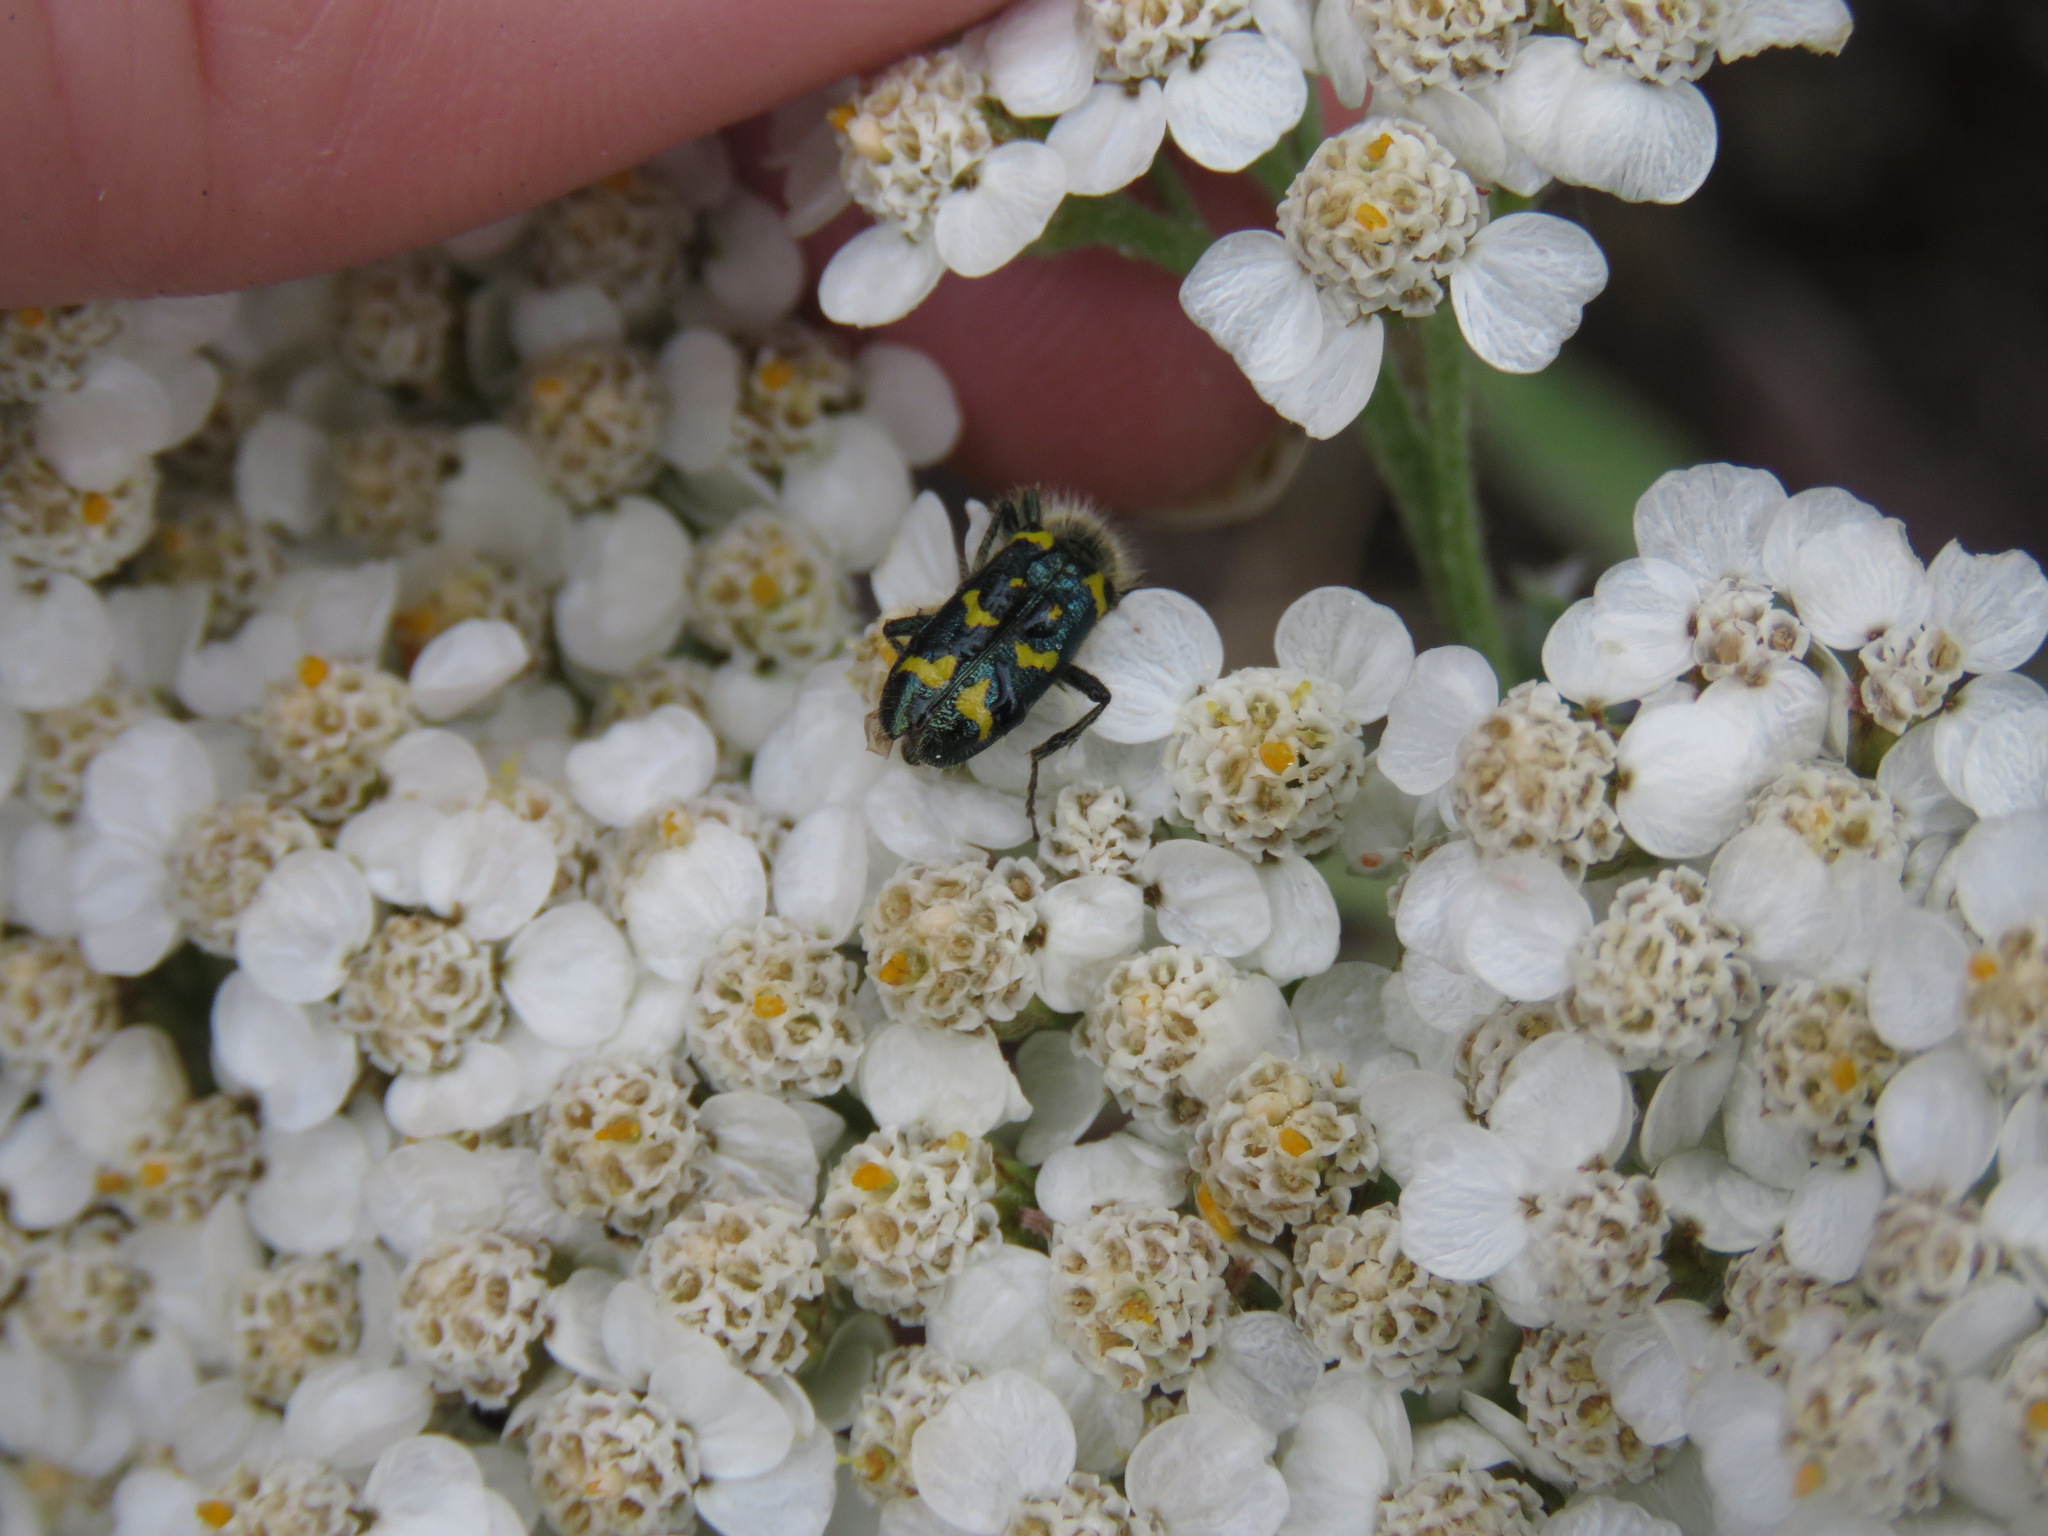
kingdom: Animalia
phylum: Arthropoda
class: Insecta
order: Coleoptera
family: Cleridae
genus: Trichodes
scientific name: Trichodes ornatus
